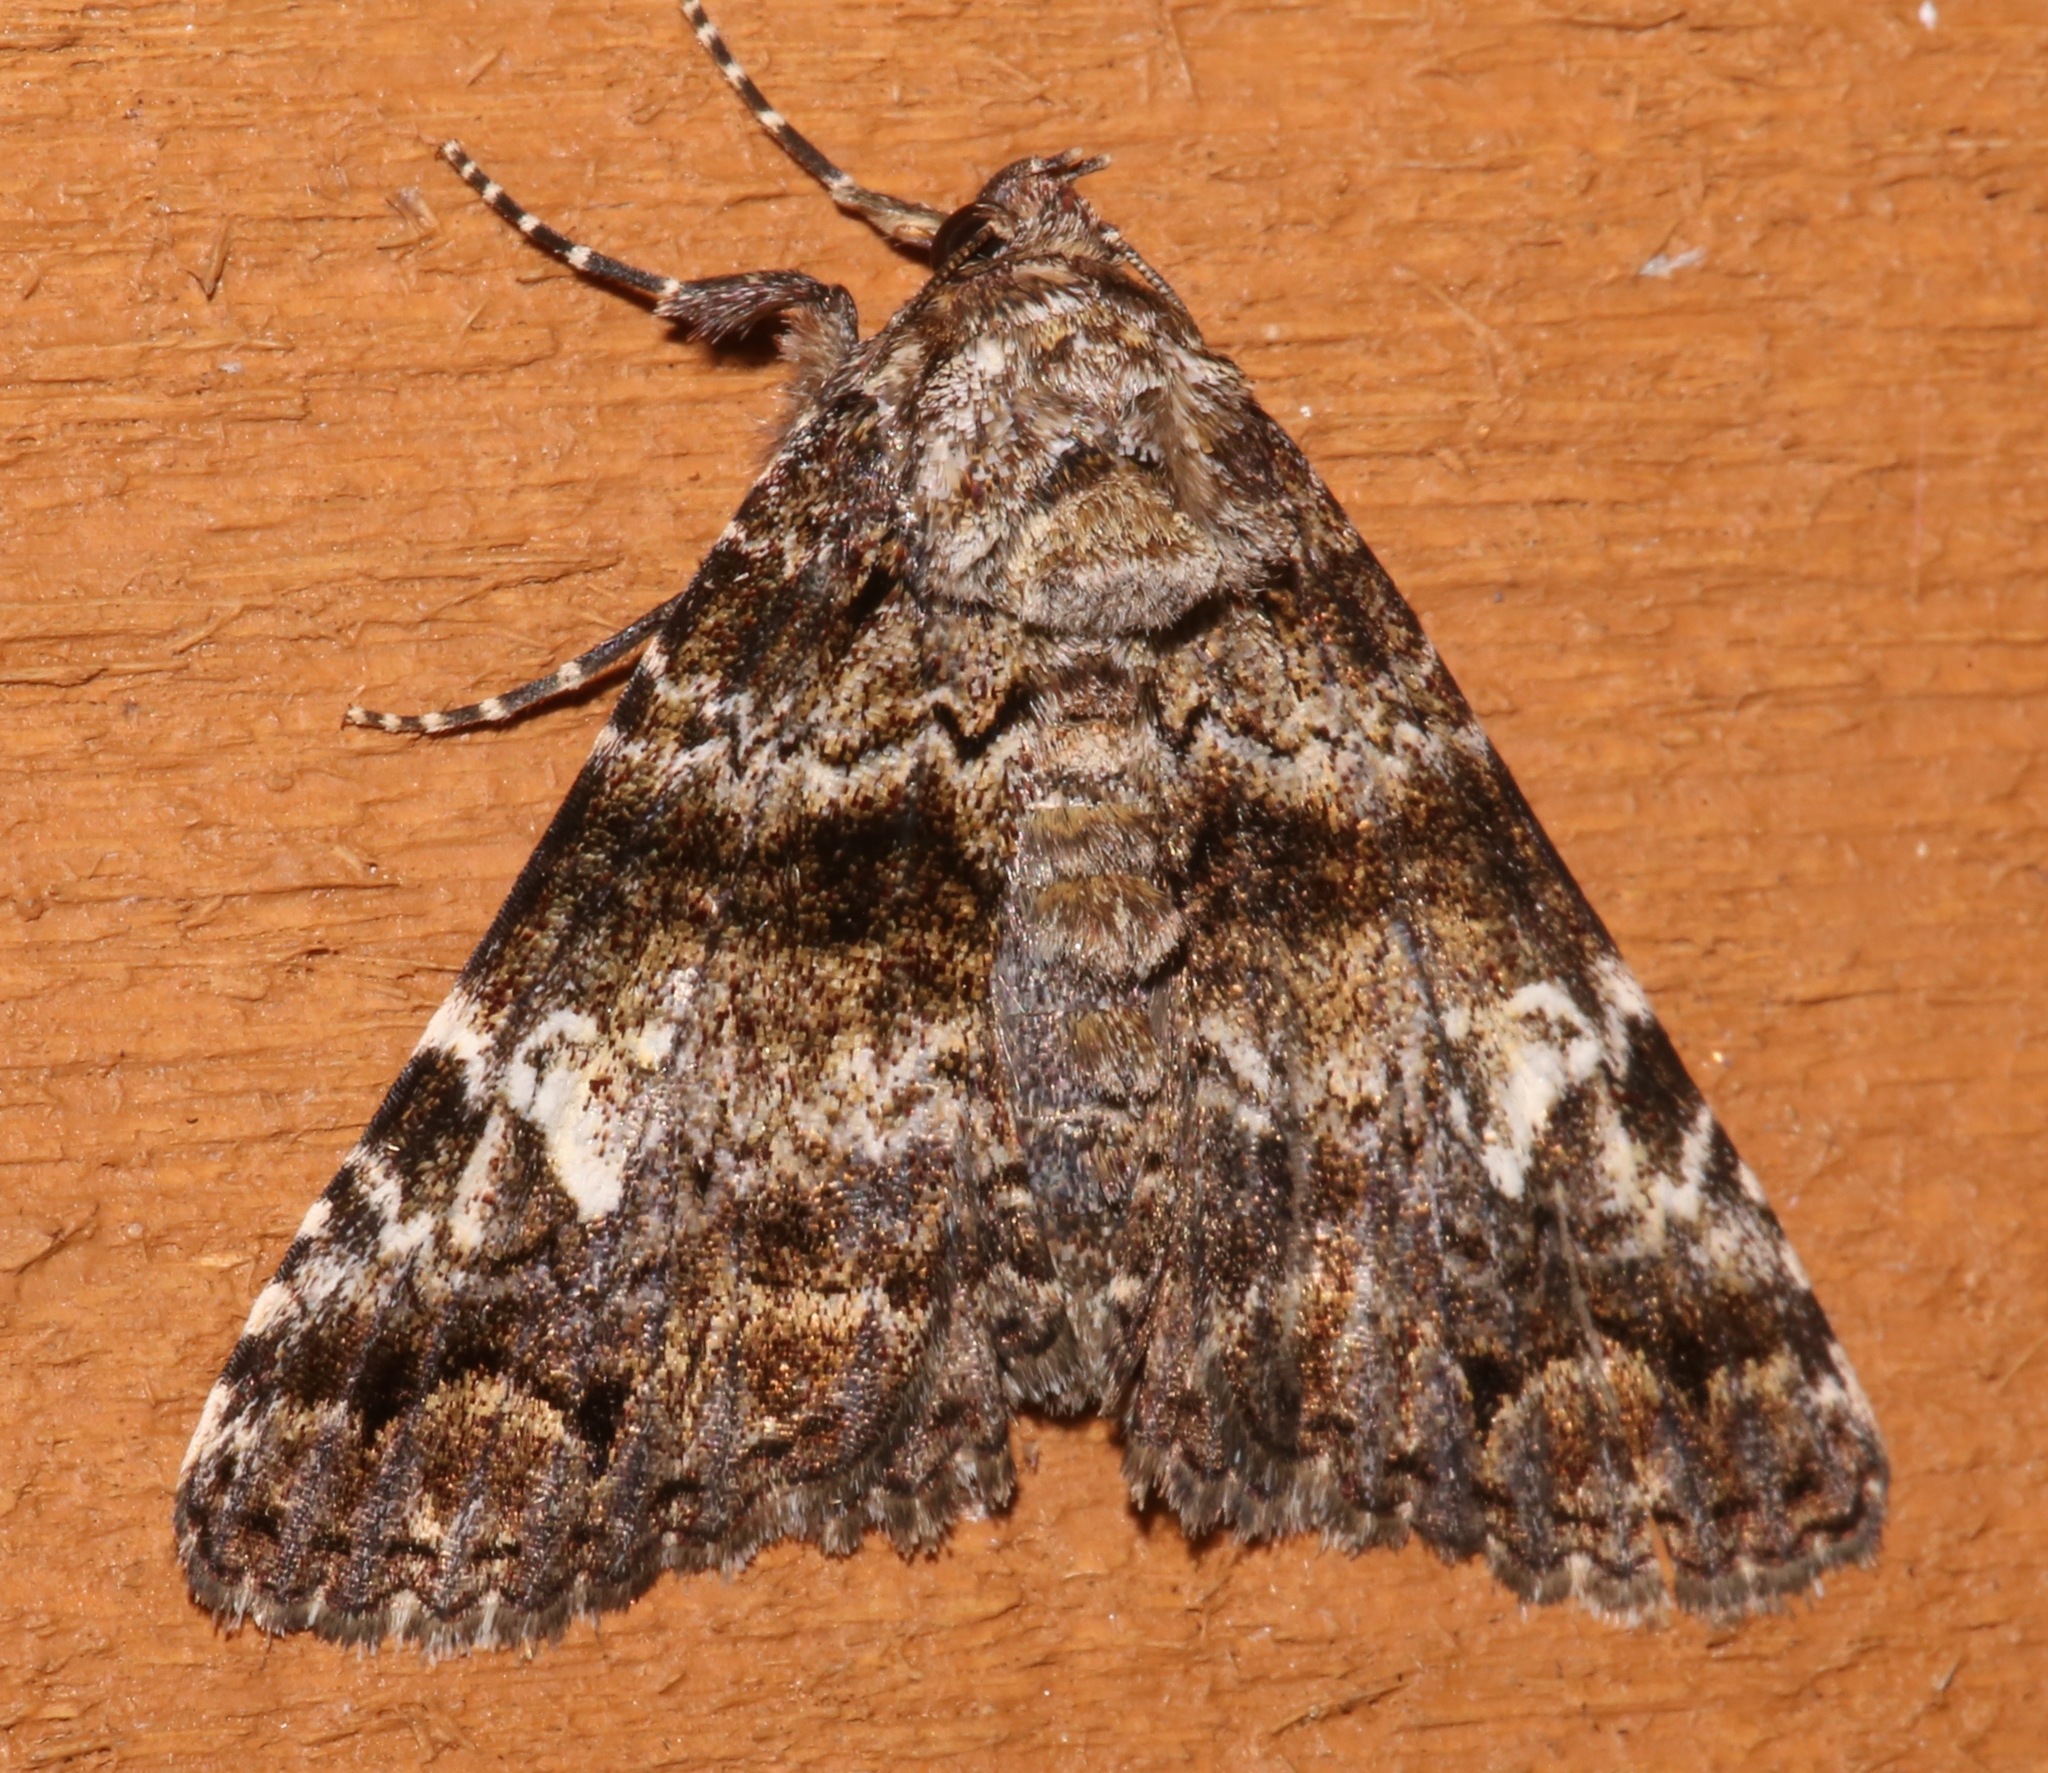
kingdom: Animalia
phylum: Arthropoda
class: Insecta
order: Lepidoptera
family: Erebidae
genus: Metria
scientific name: Metria amella
